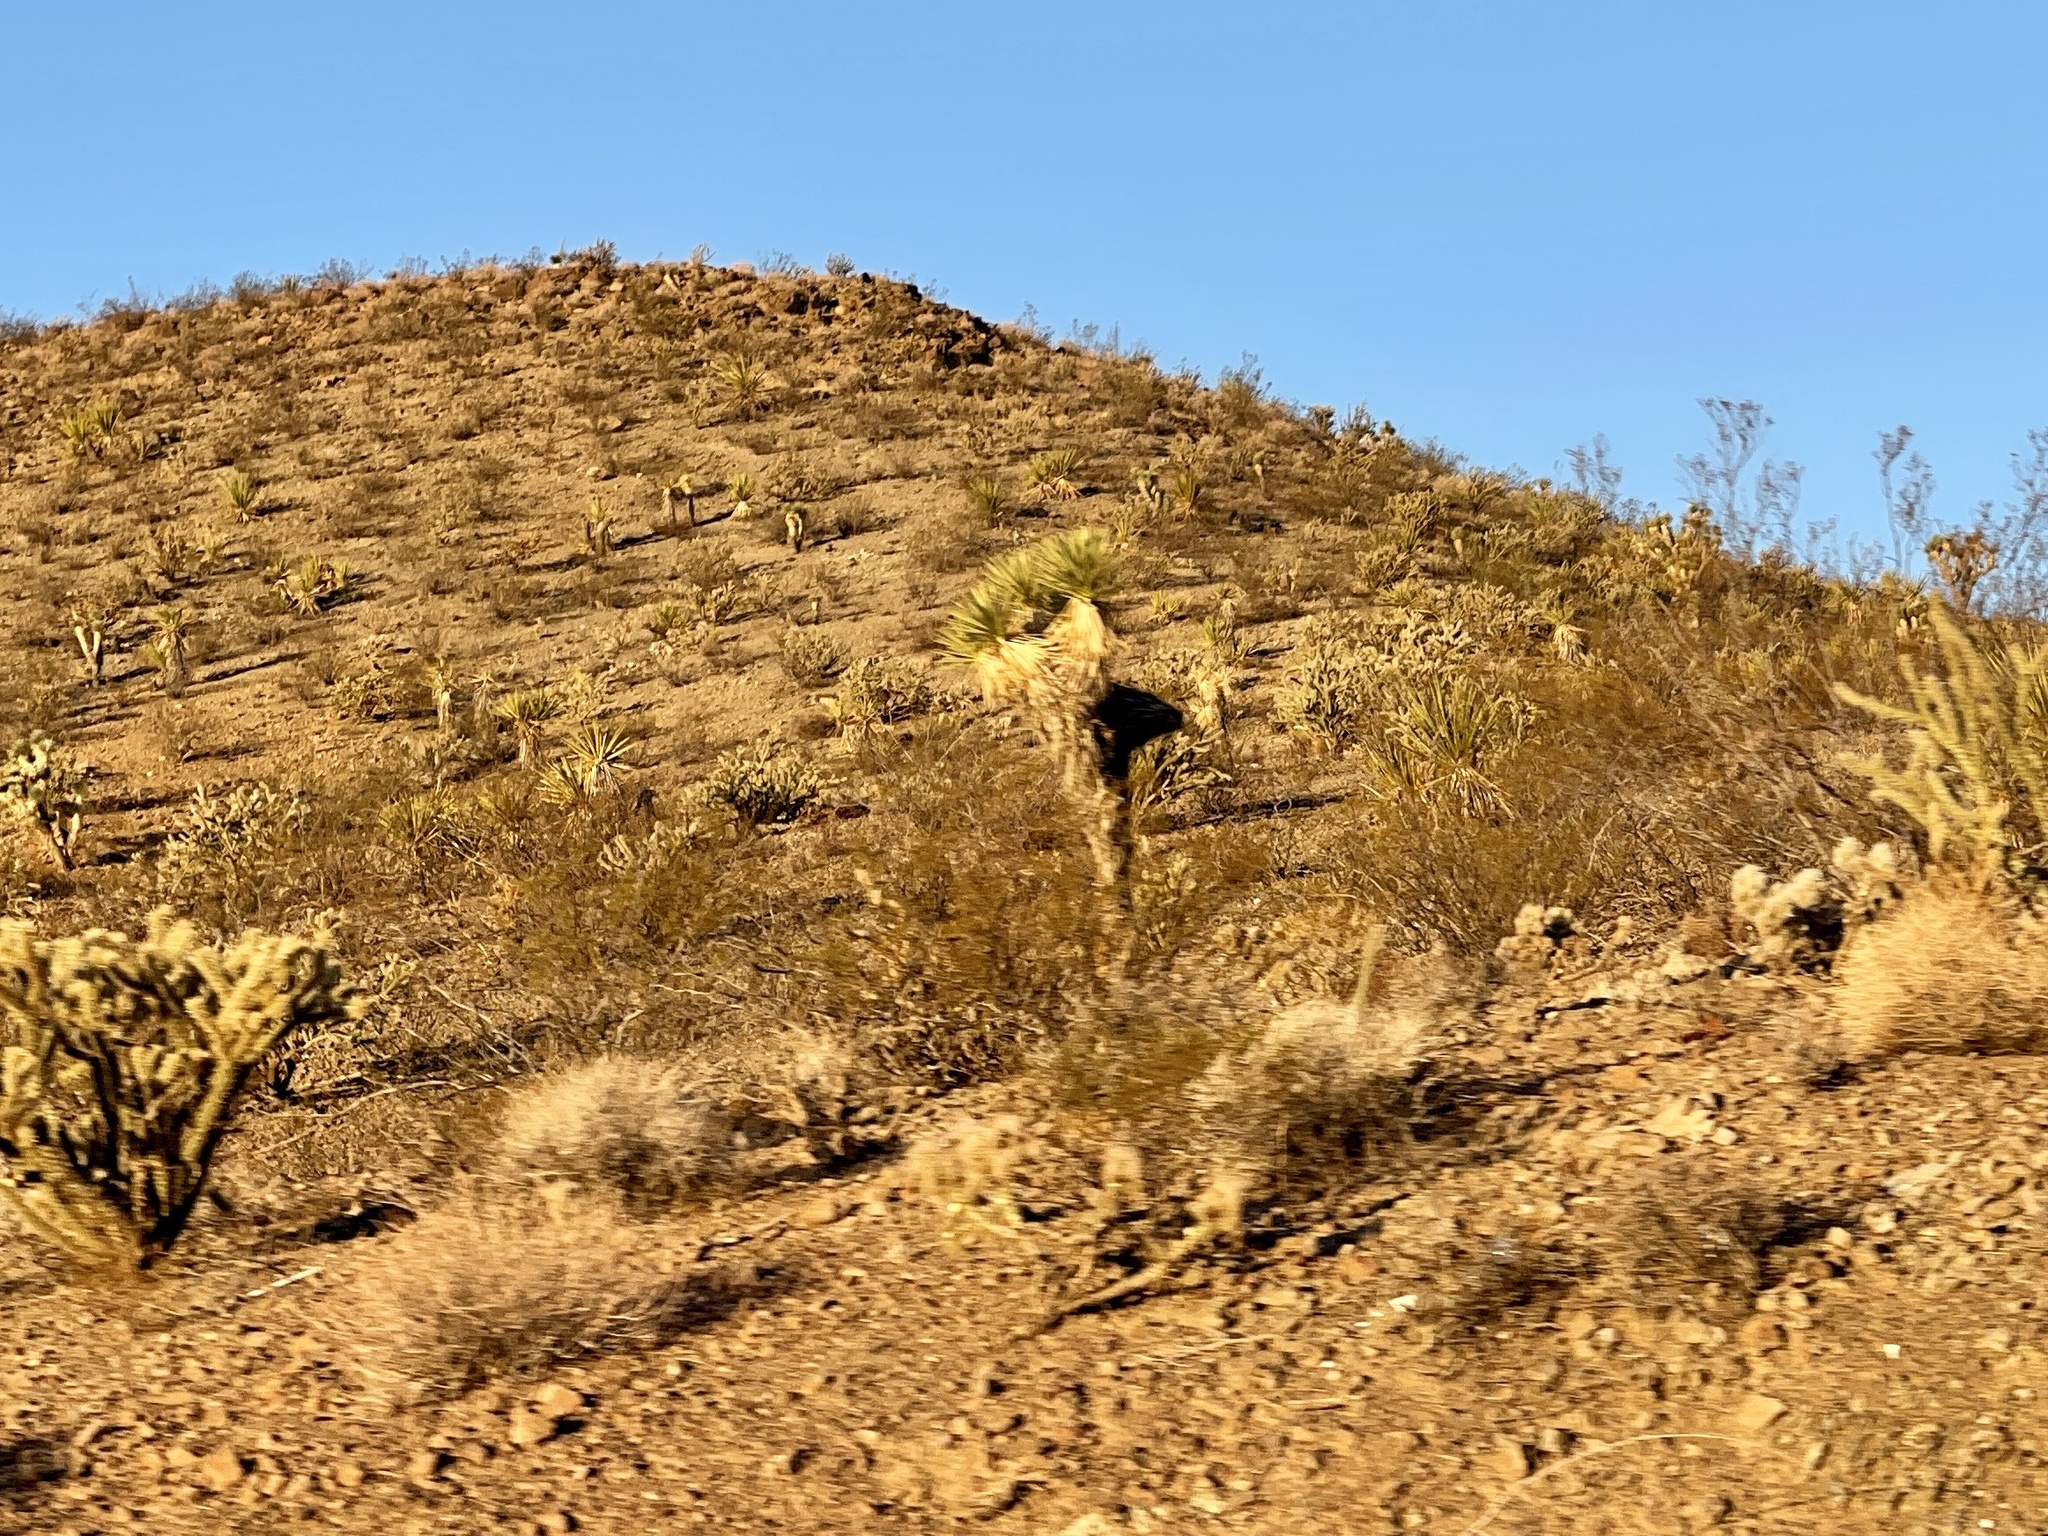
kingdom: Plantae
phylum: Tracheophyta
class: Liliopsida
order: Asparagales
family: Asparagaceae
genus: Yucca
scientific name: Yucca brevifolia
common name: Joshua tree
